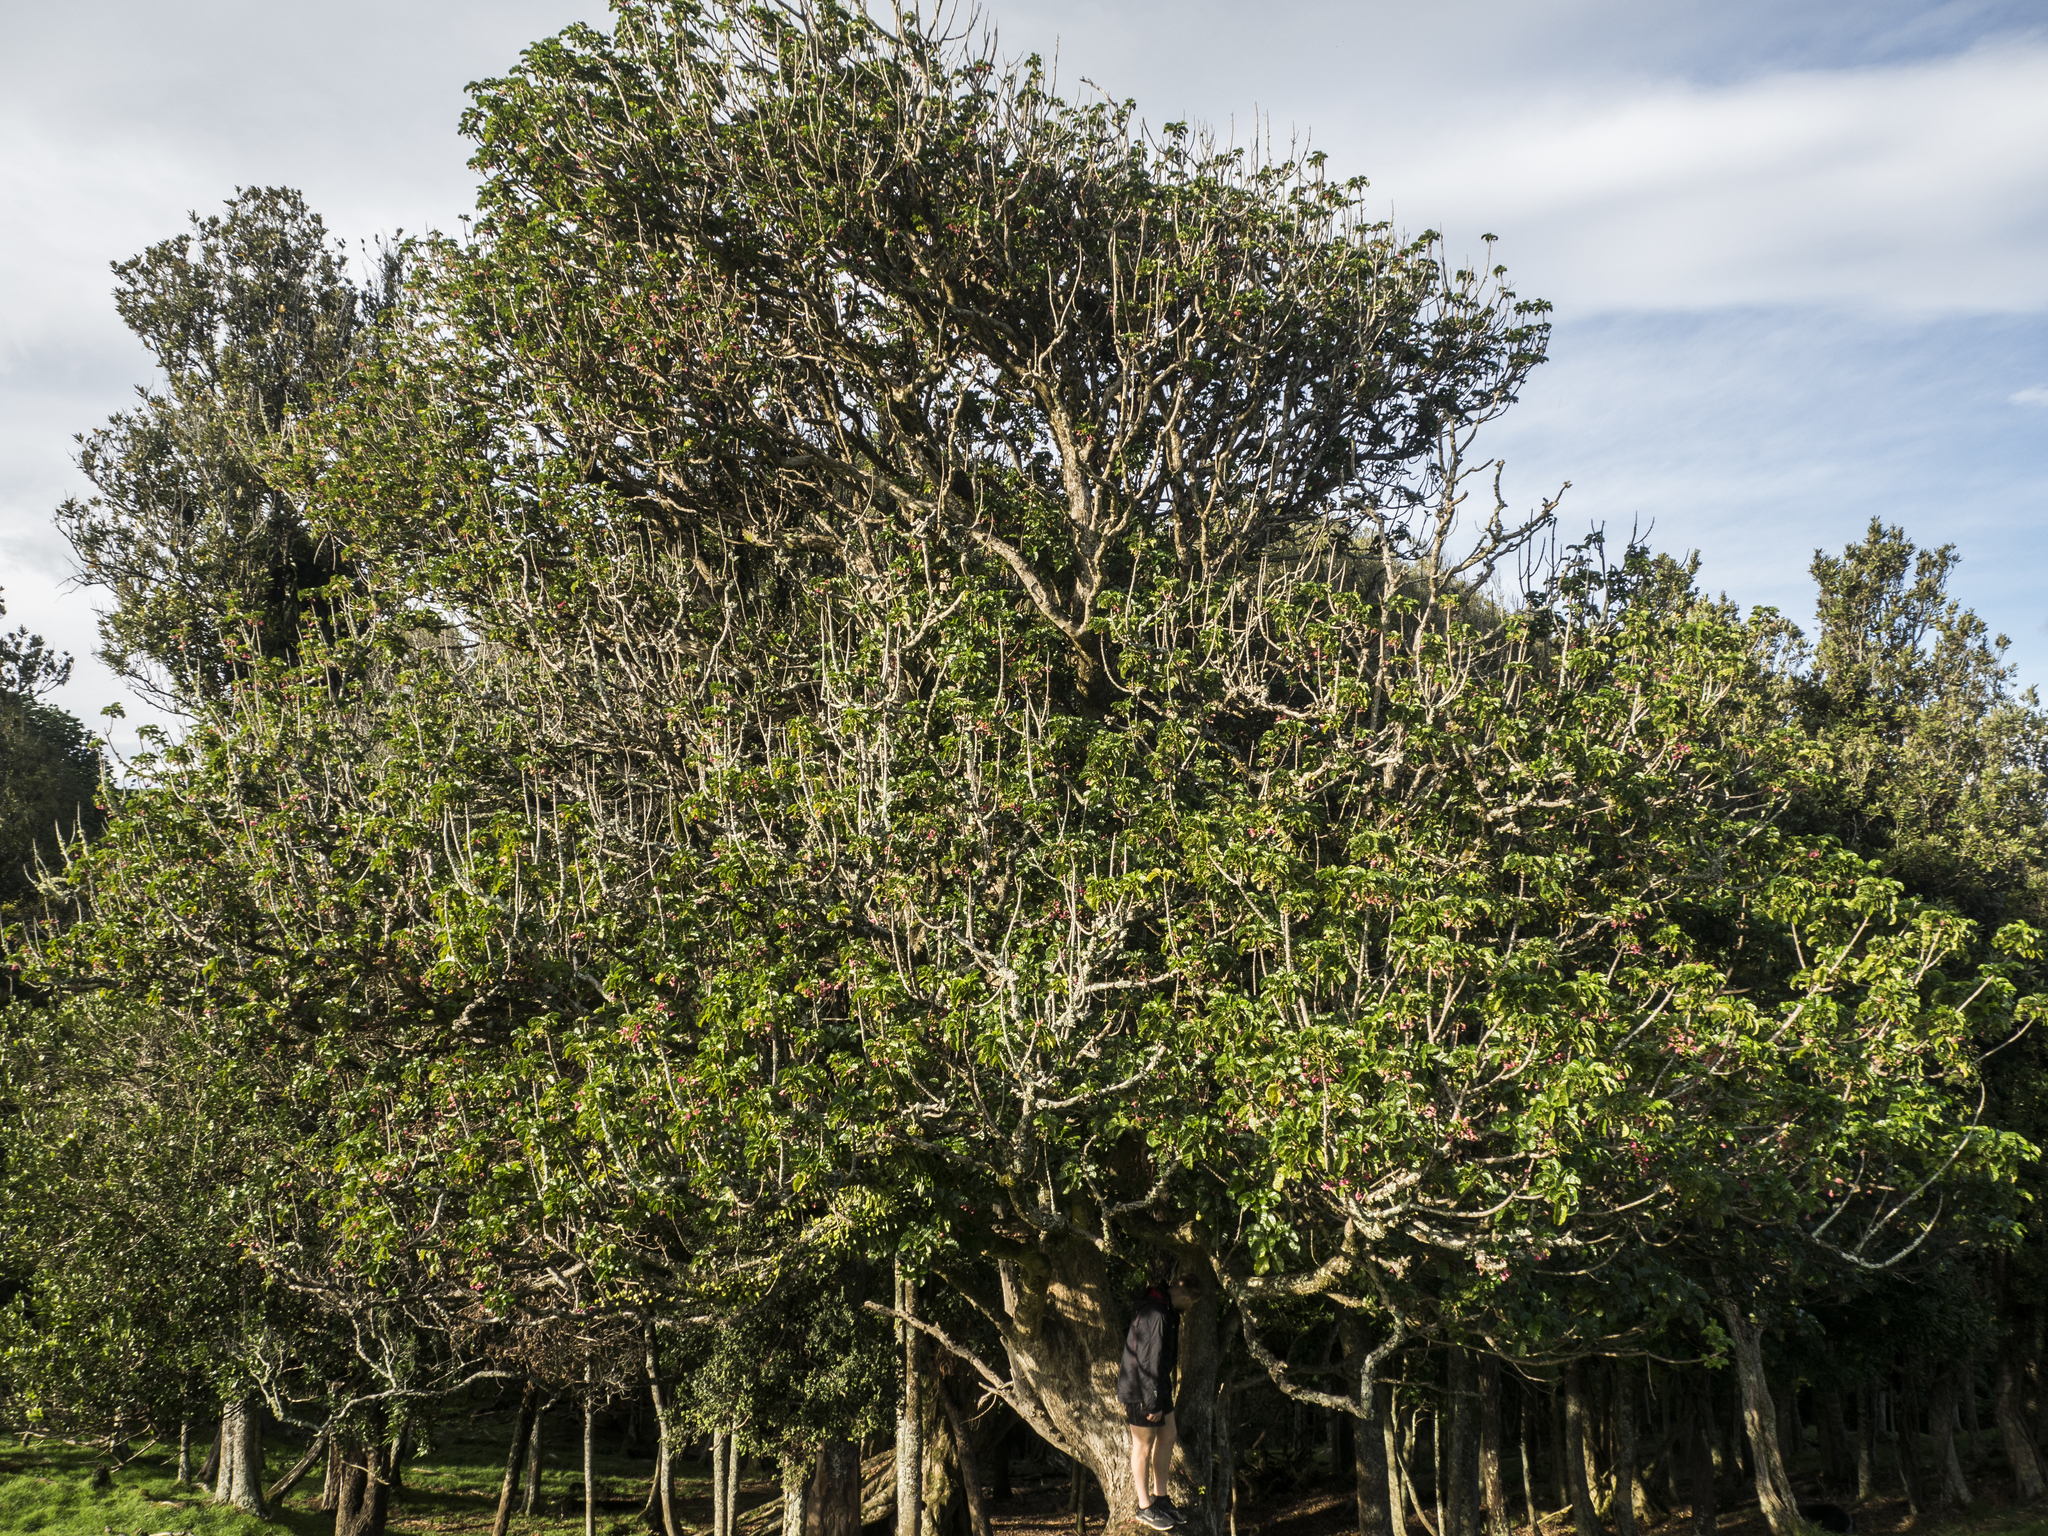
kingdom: Plantae
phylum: Tracheophyta
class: Magnoliopsida
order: Lamiales
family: Lamiaceae
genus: Vitex
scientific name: Vitex lucens
